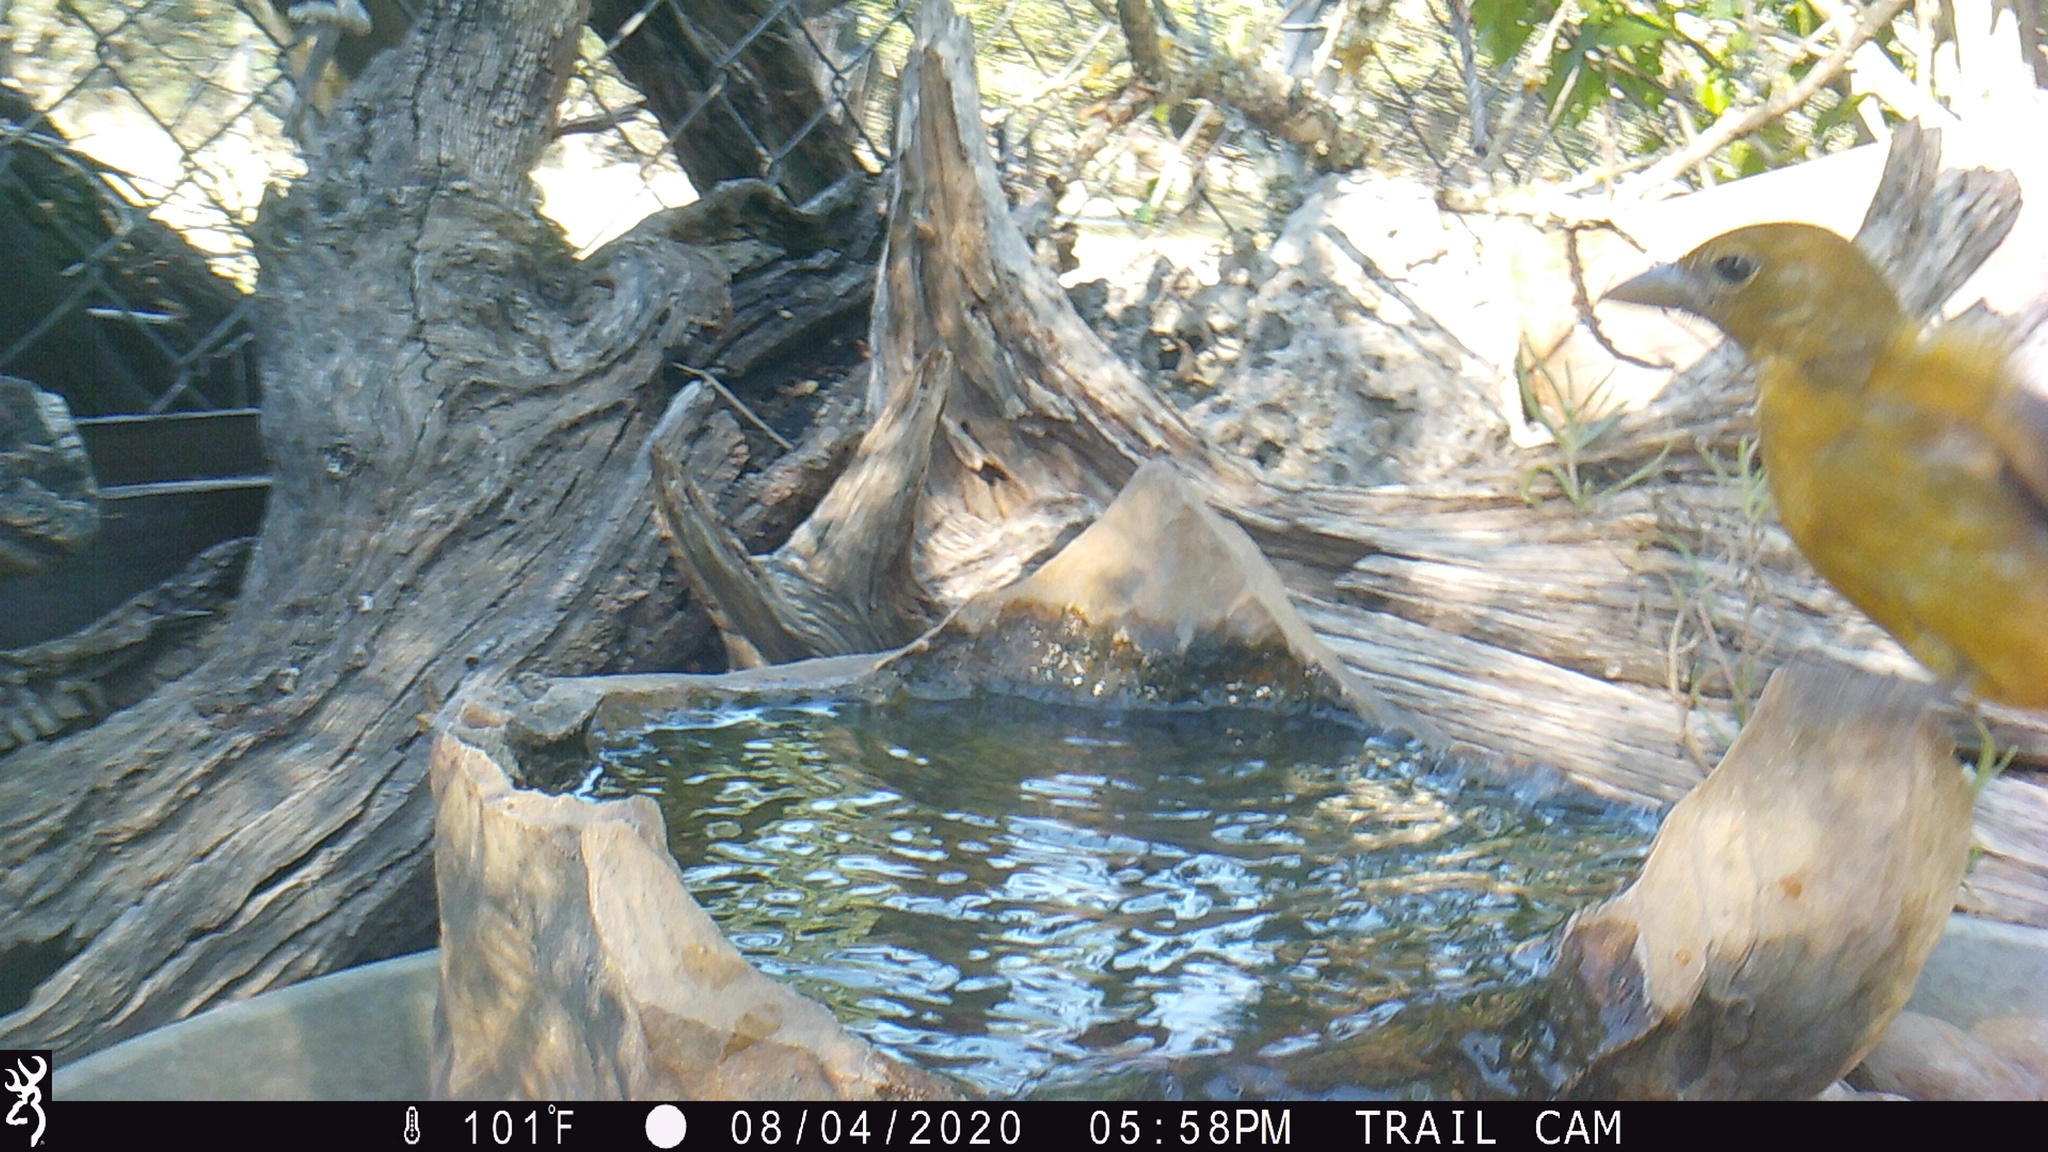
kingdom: Animalia
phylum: Chordata
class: Aves
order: Passeriformes
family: Cardinalidae
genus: Piranga
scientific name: Piranga rubra
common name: Summer tanager
